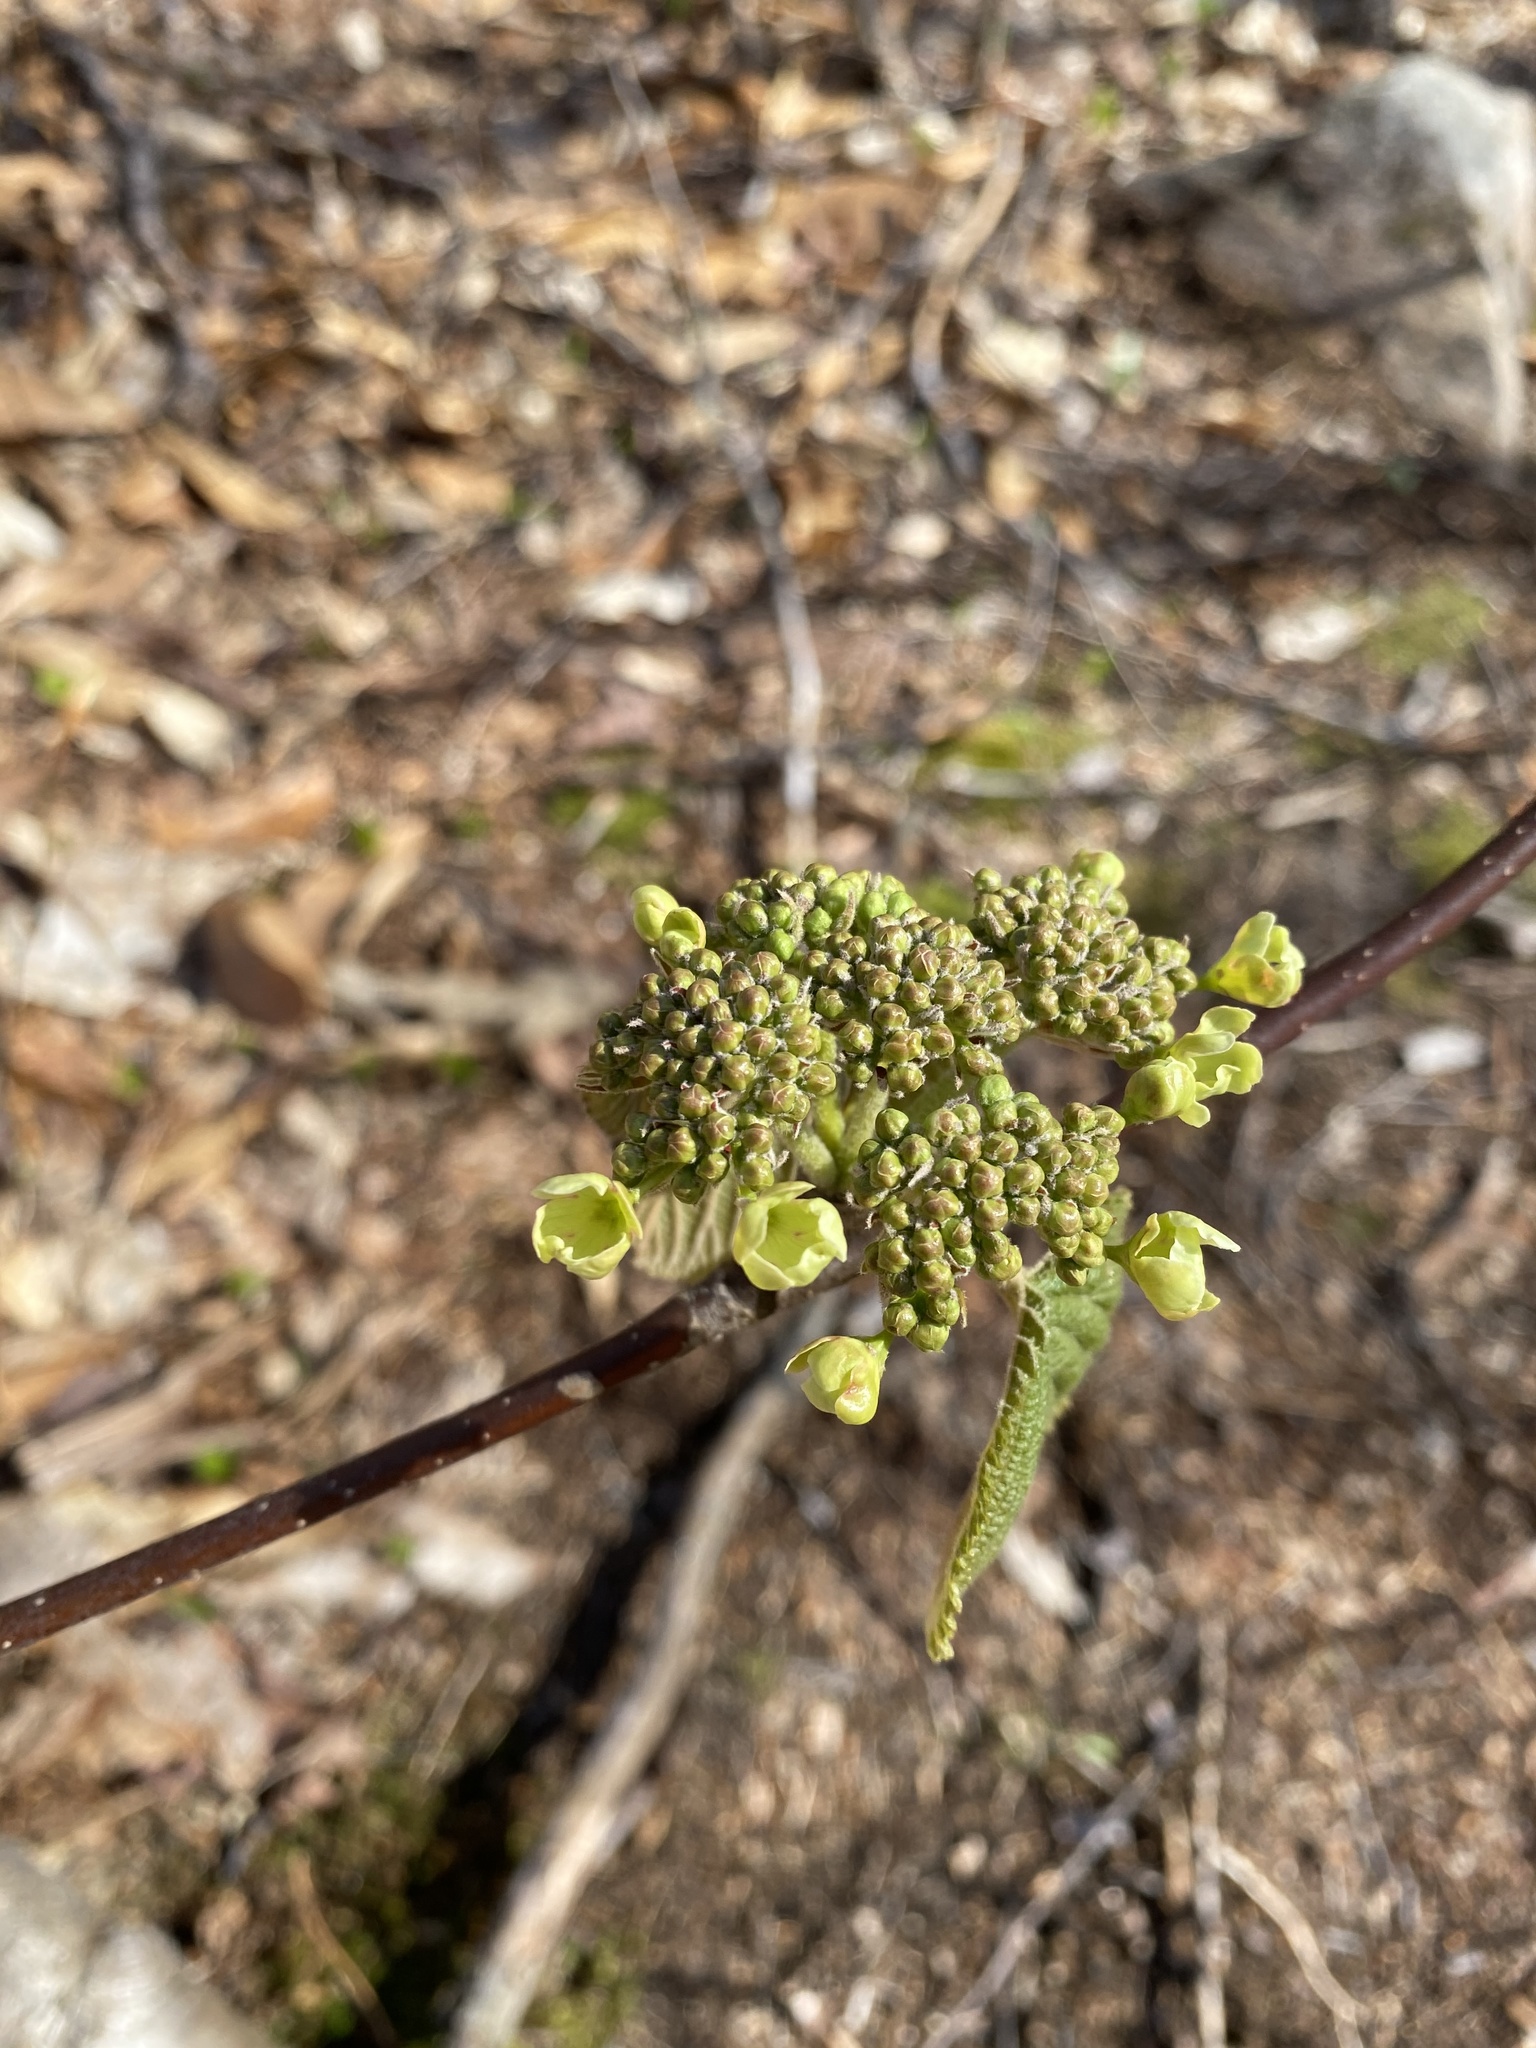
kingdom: Plantae
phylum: Tracheophyta
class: Magnoliopsida
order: Dipsacales
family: Viburnaceae
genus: Viburnum
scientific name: Viburnum lantanoides
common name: Hobblebush
